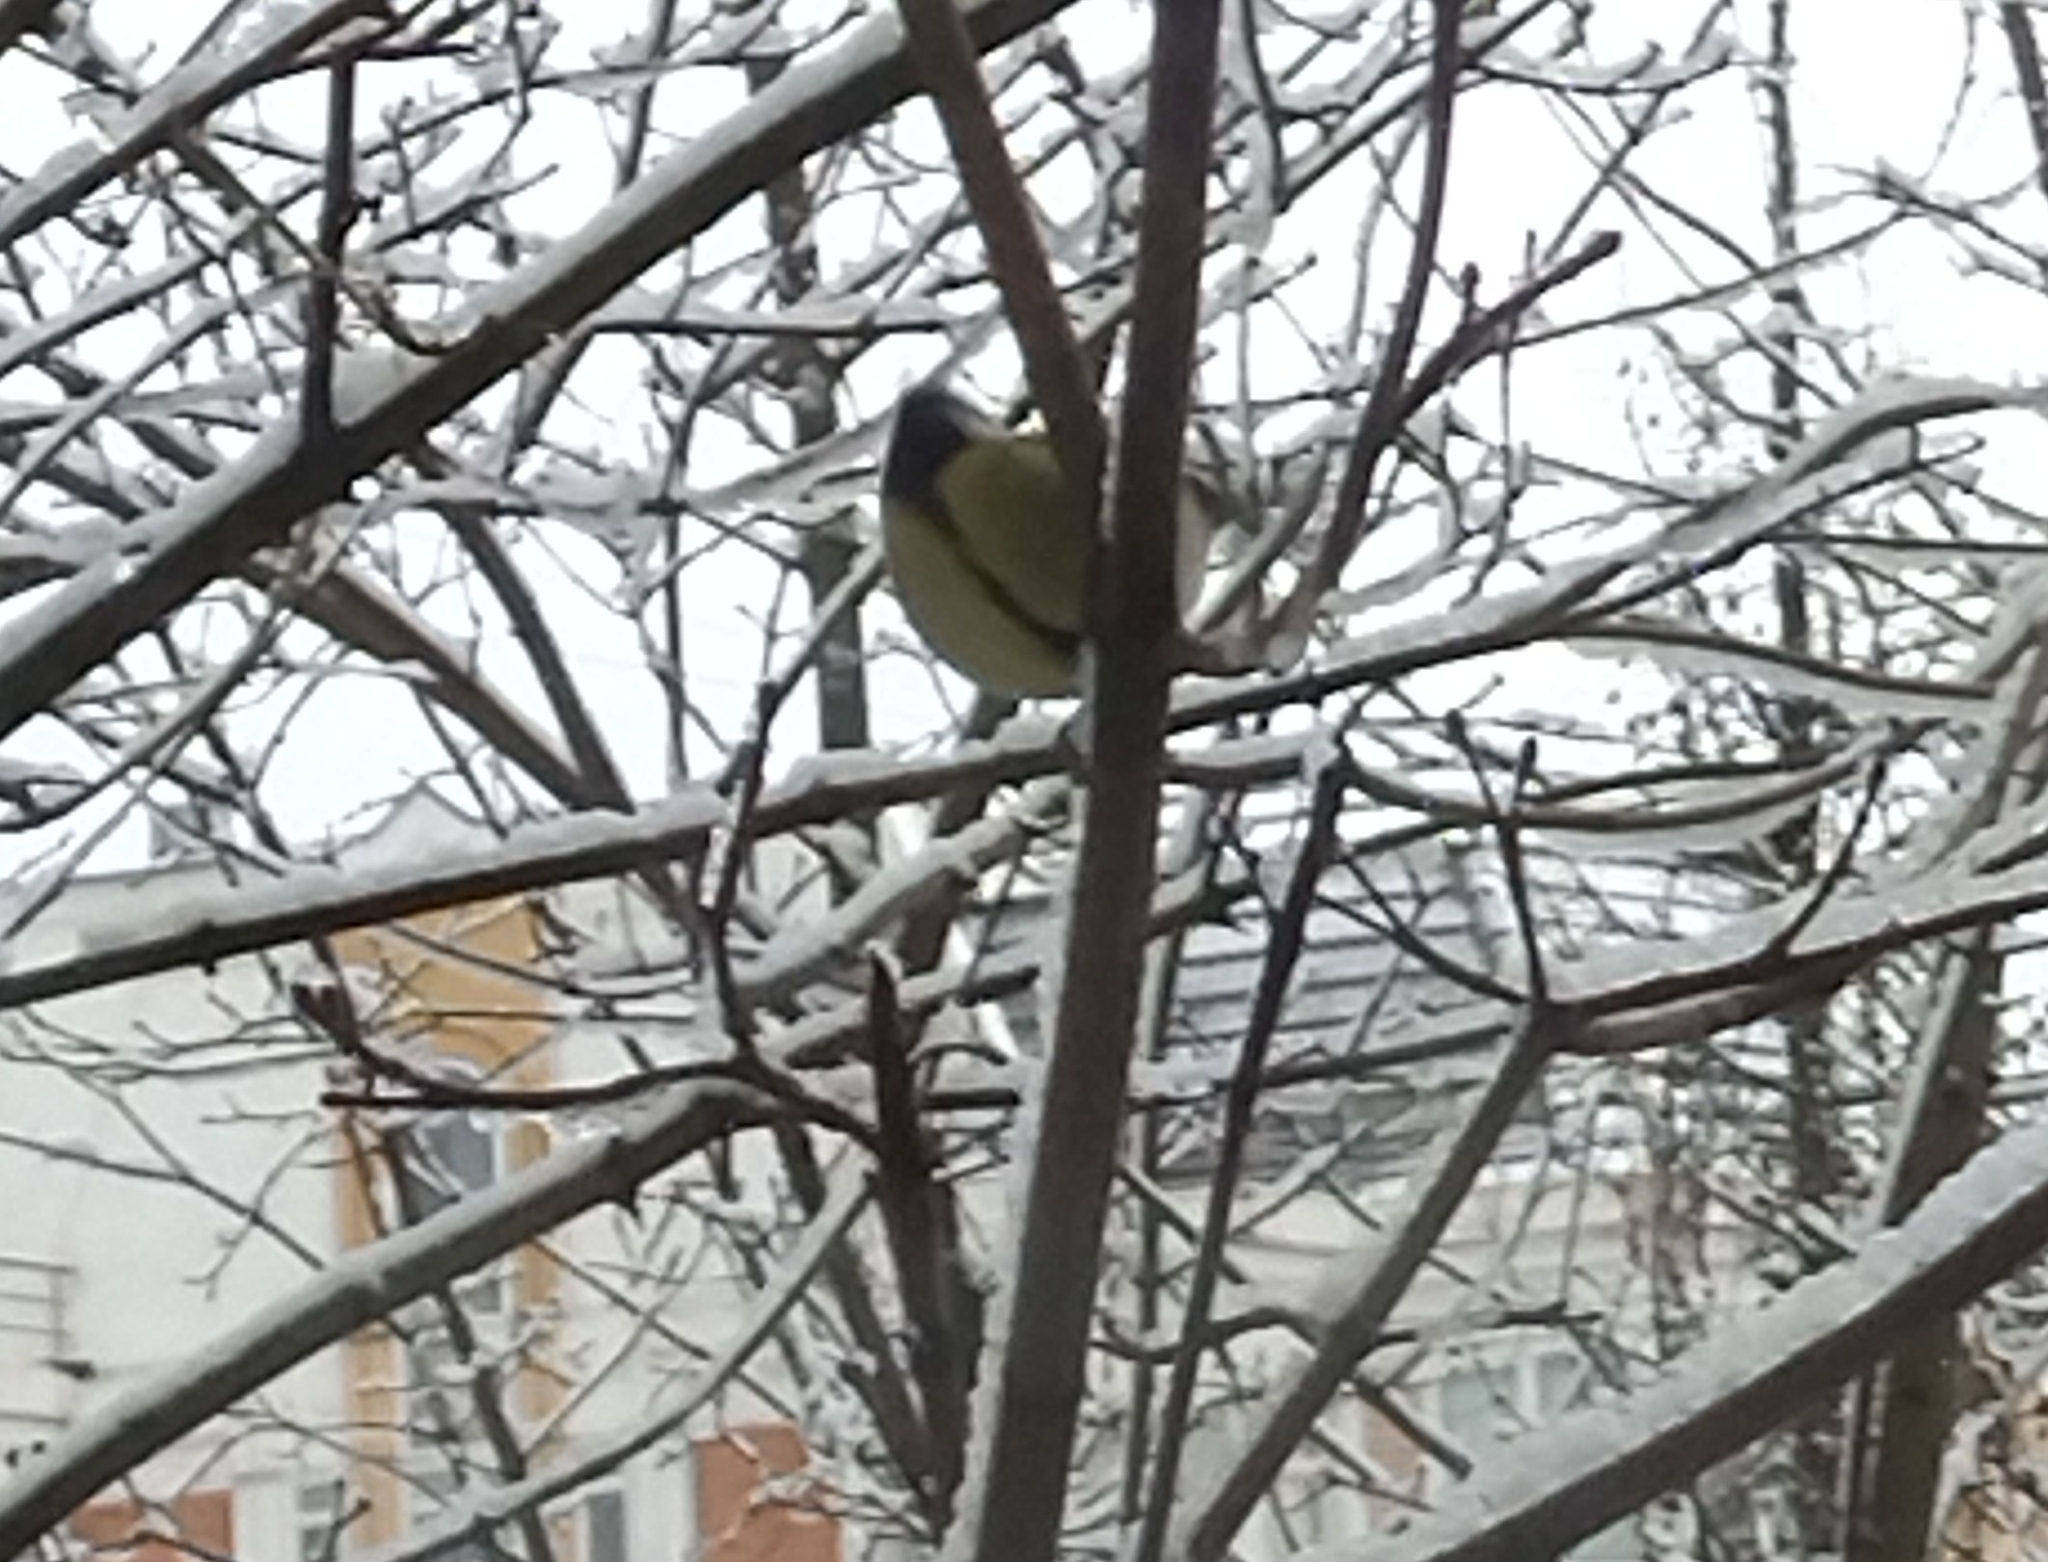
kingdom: Animalia
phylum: Chordata
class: Aves
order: Passeriformes
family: Paridae
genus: Parus
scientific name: Parus major
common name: Great tit
